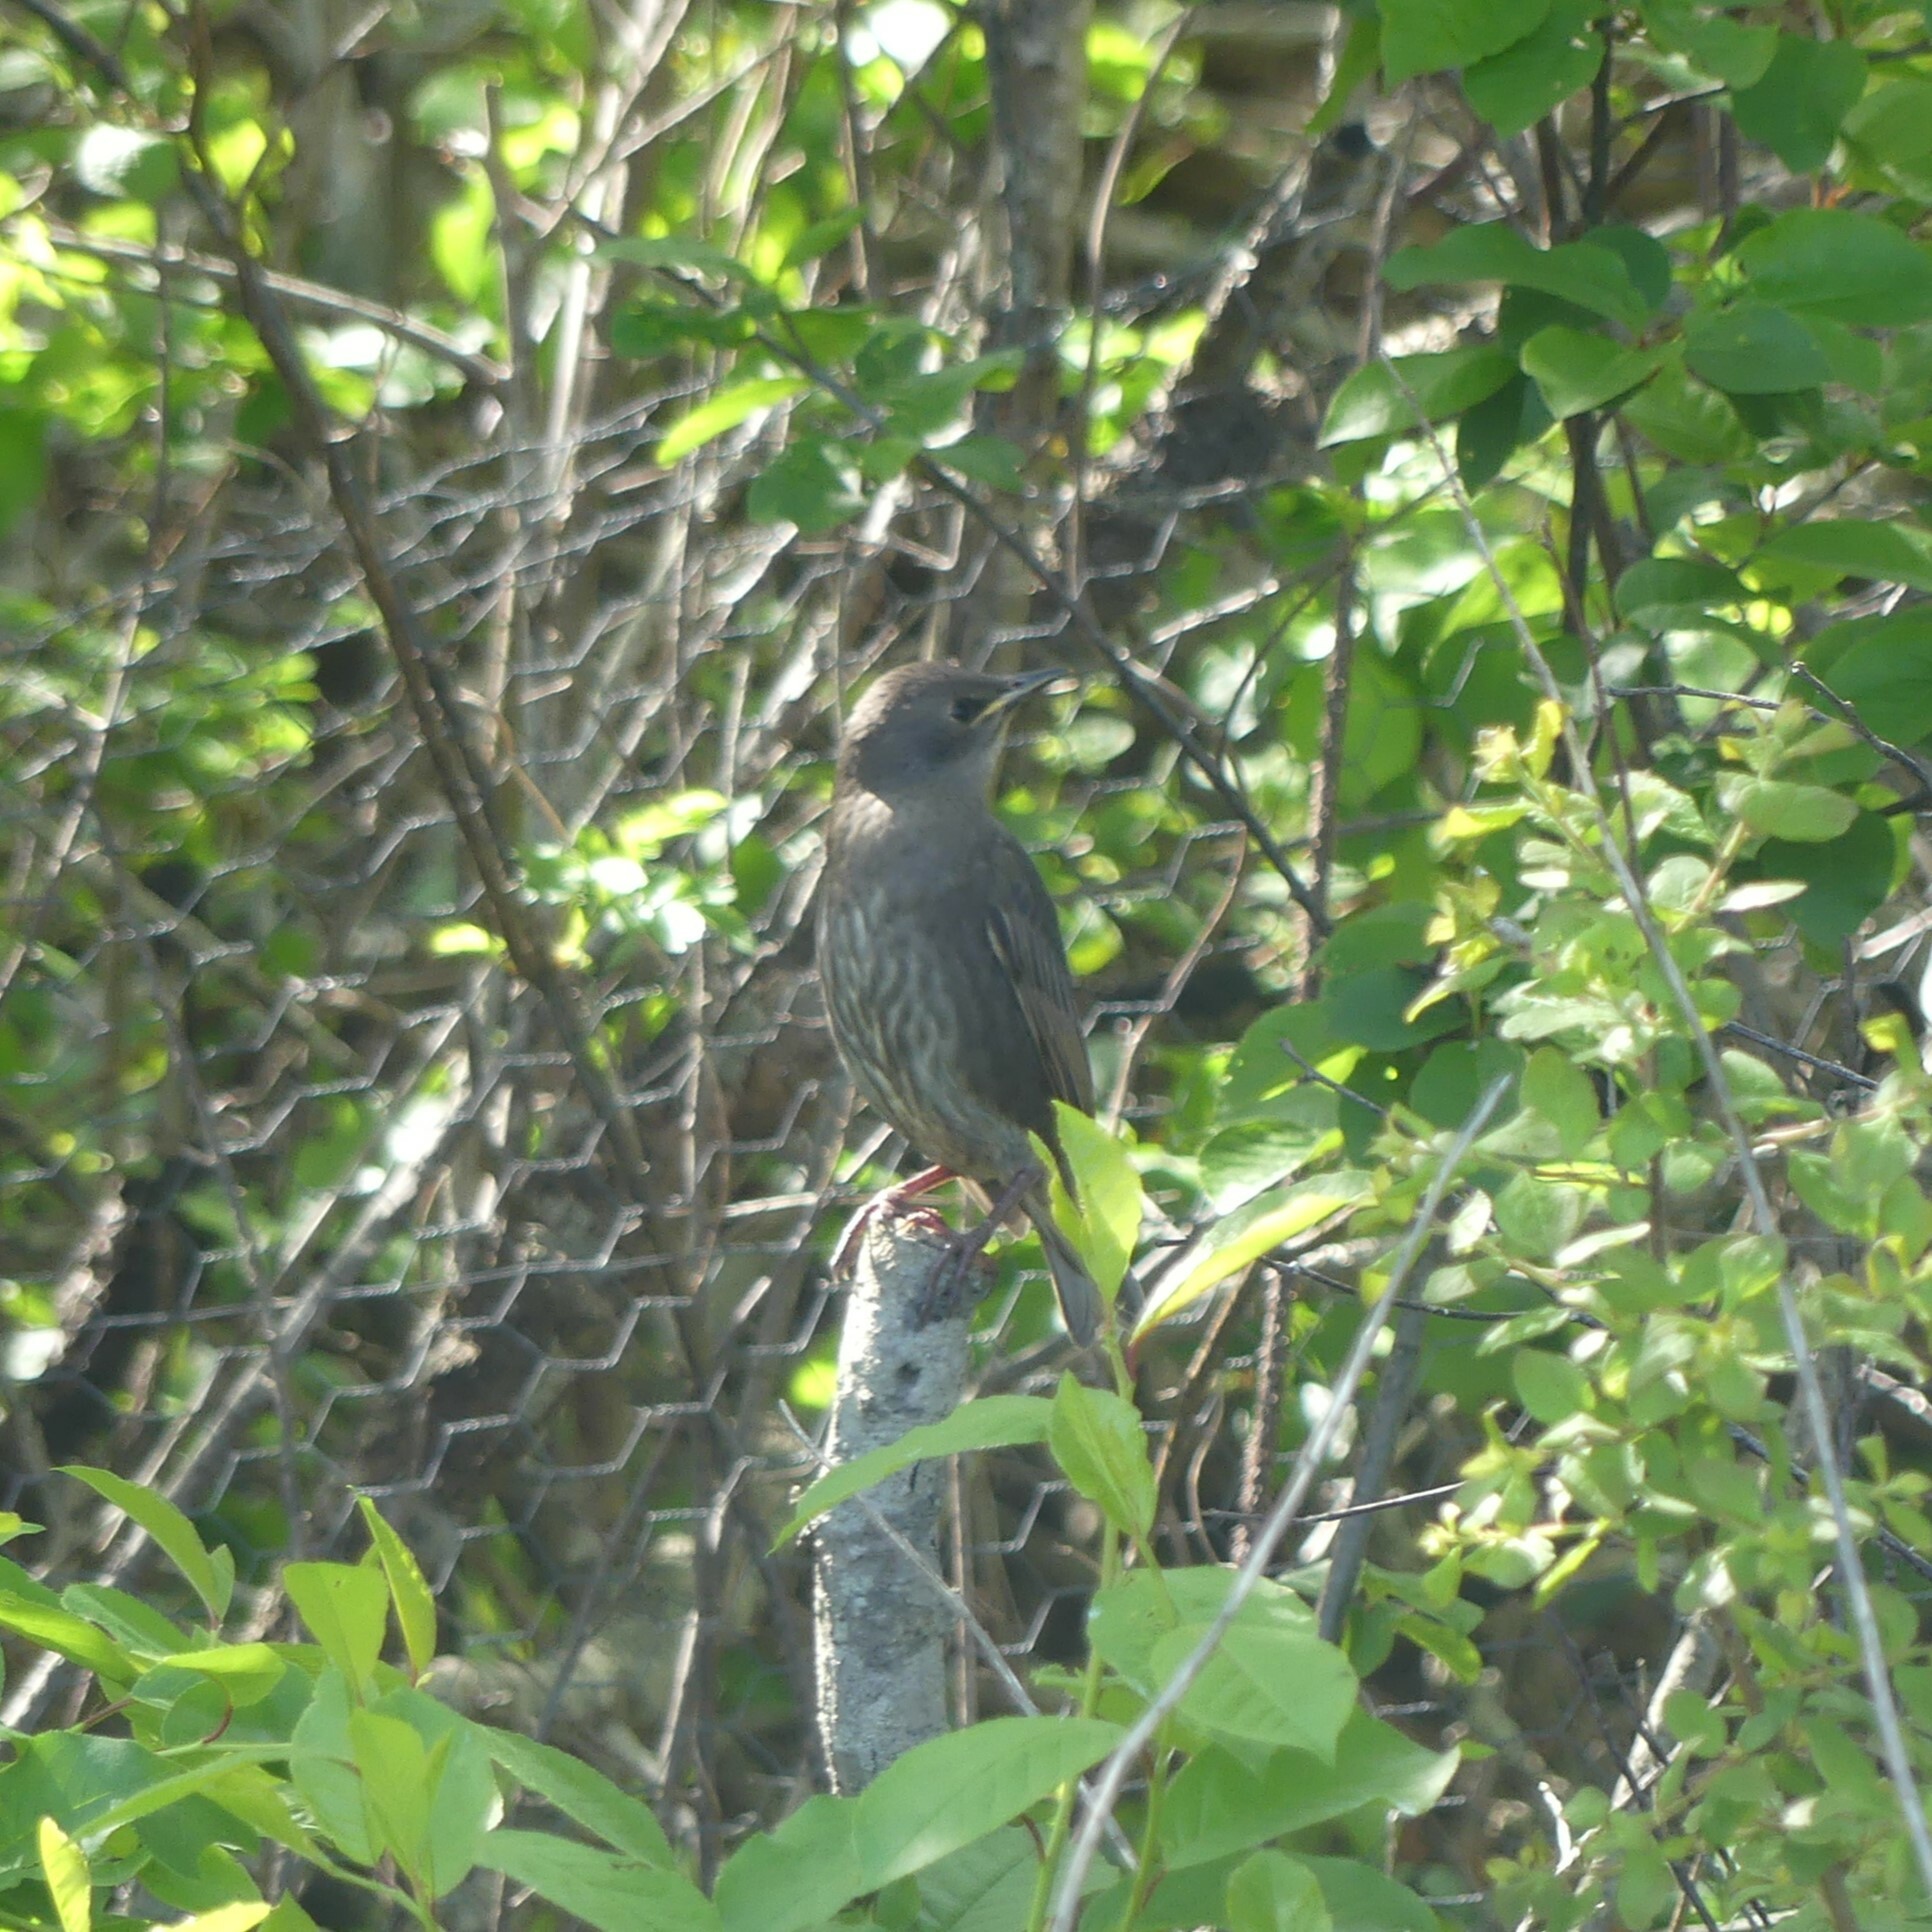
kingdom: Animalia
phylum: Chordata
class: Aves
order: Passeriformes
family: Sturnidae
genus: Sturnus
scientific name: Sturnus vulgaris
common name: Common starling
